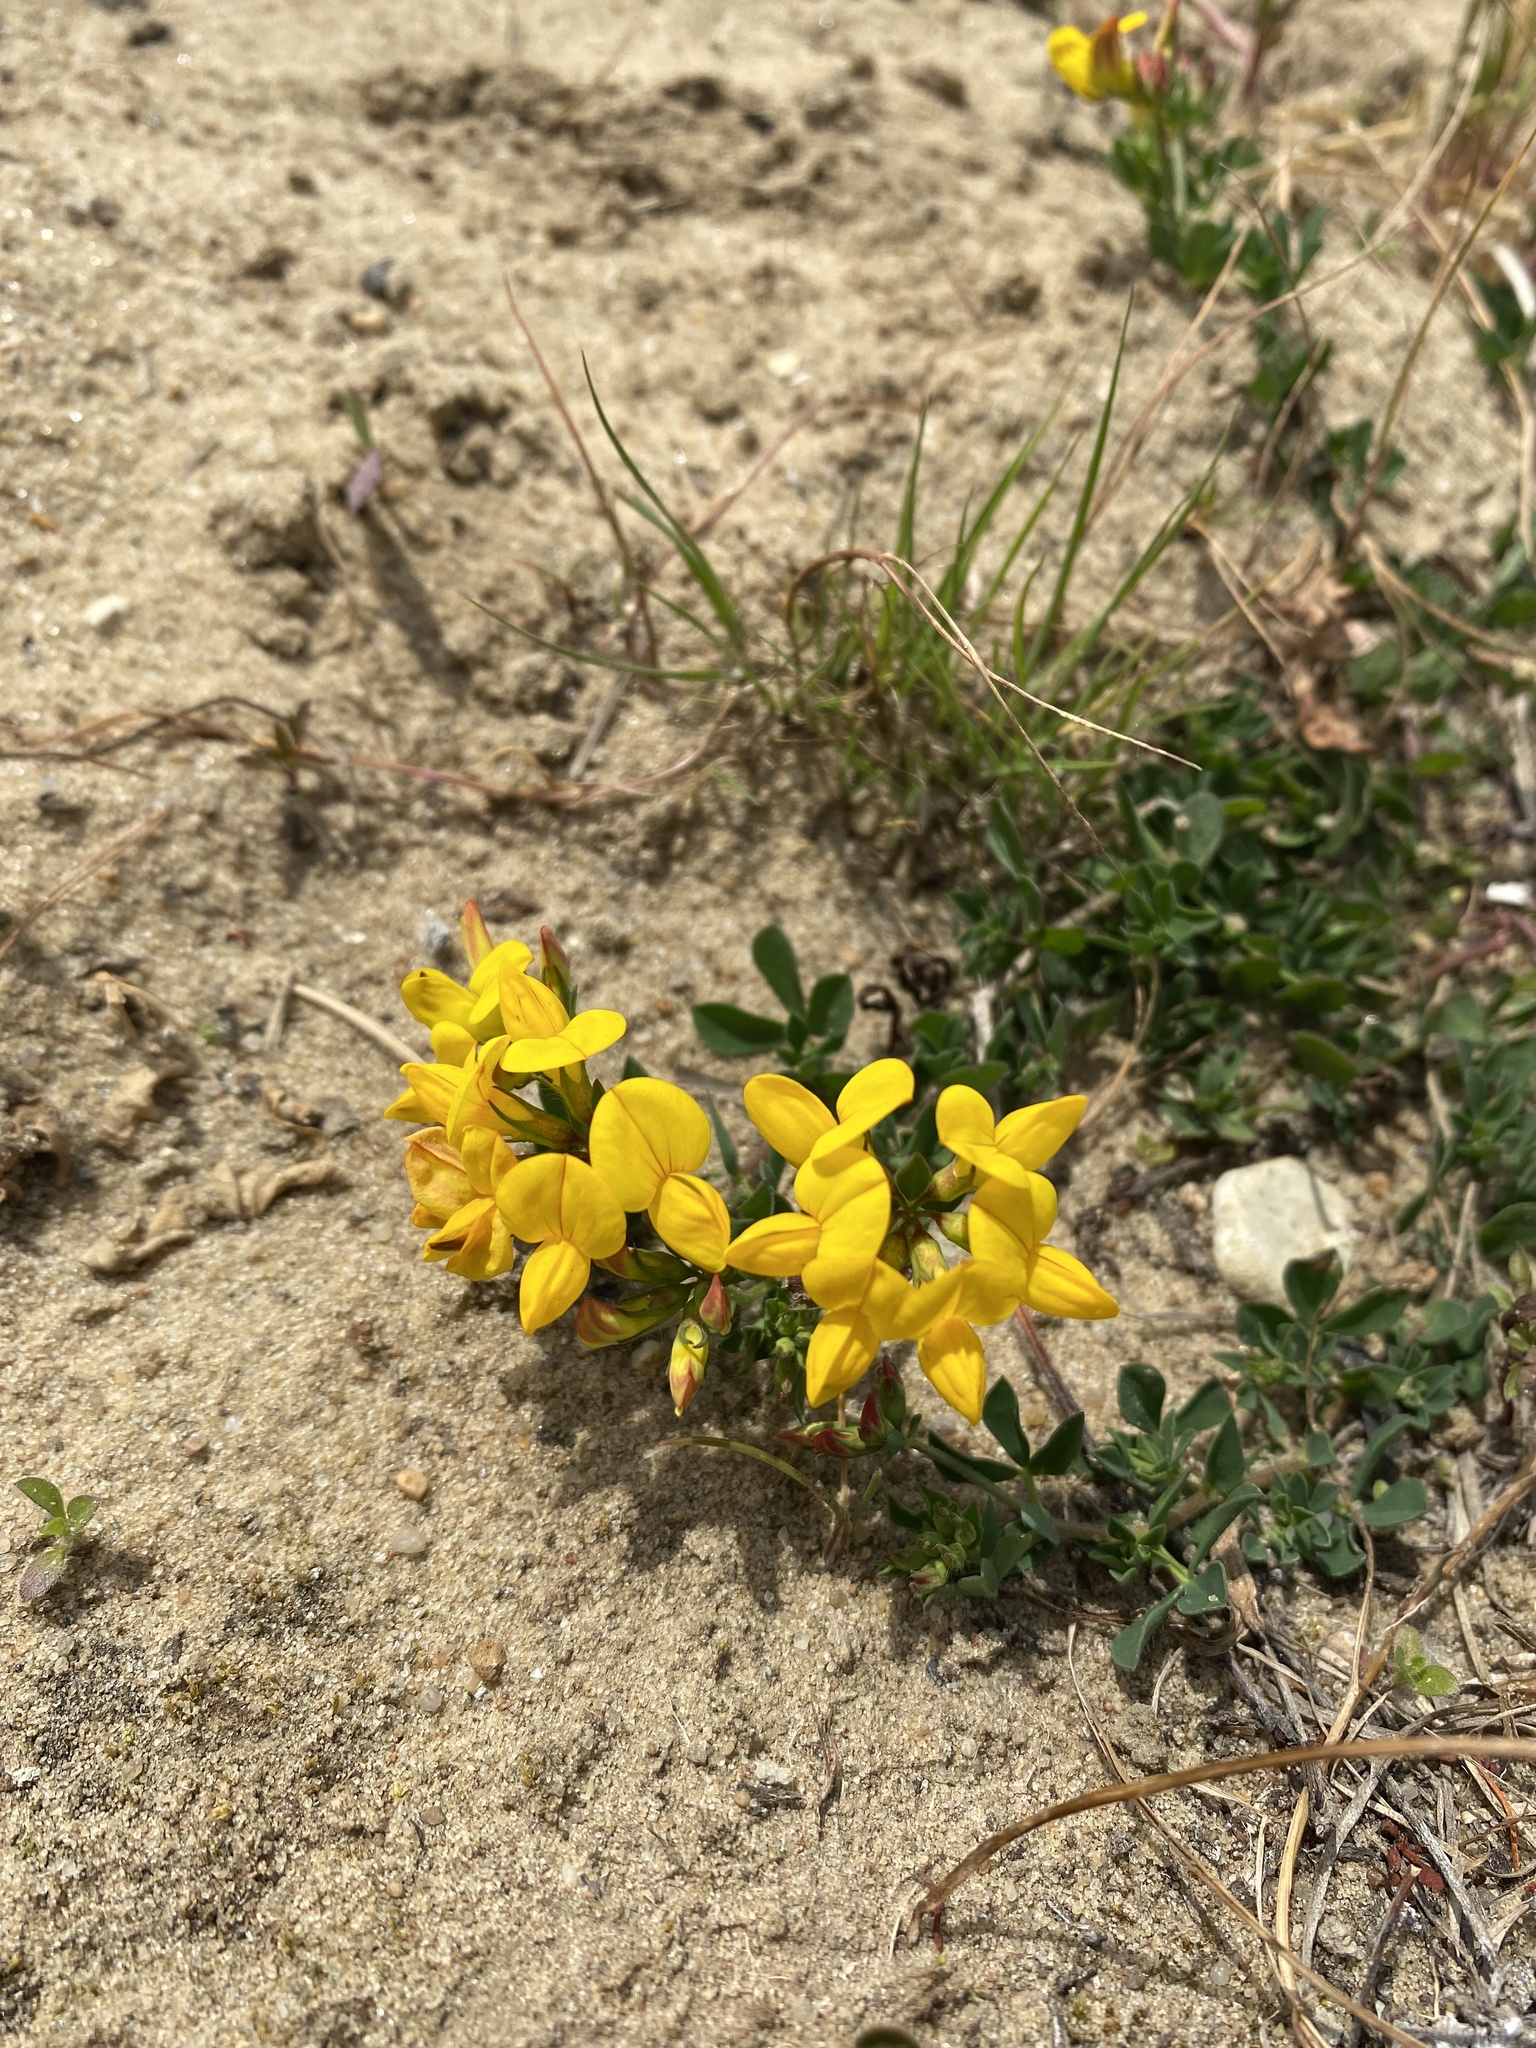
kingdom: Plantae
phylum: Tracheophyta
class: Magnoliopsida
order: Fabales
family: Fabaceae
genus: Lotus
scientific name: Lotus corniculatus
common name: Common bird's-foot-trefoil
